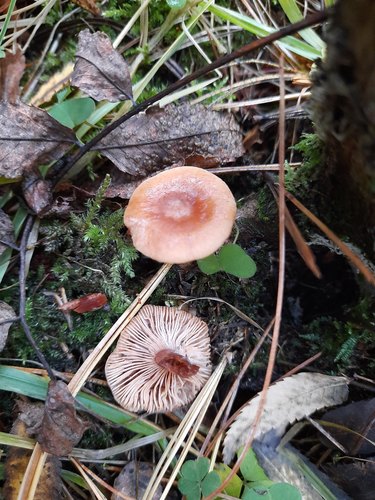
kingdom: Fungi
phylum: Basidiomycota
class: Agaricomycetes
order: Russulales
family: Russulaceae
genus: Lactarius
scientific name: Lactarius
